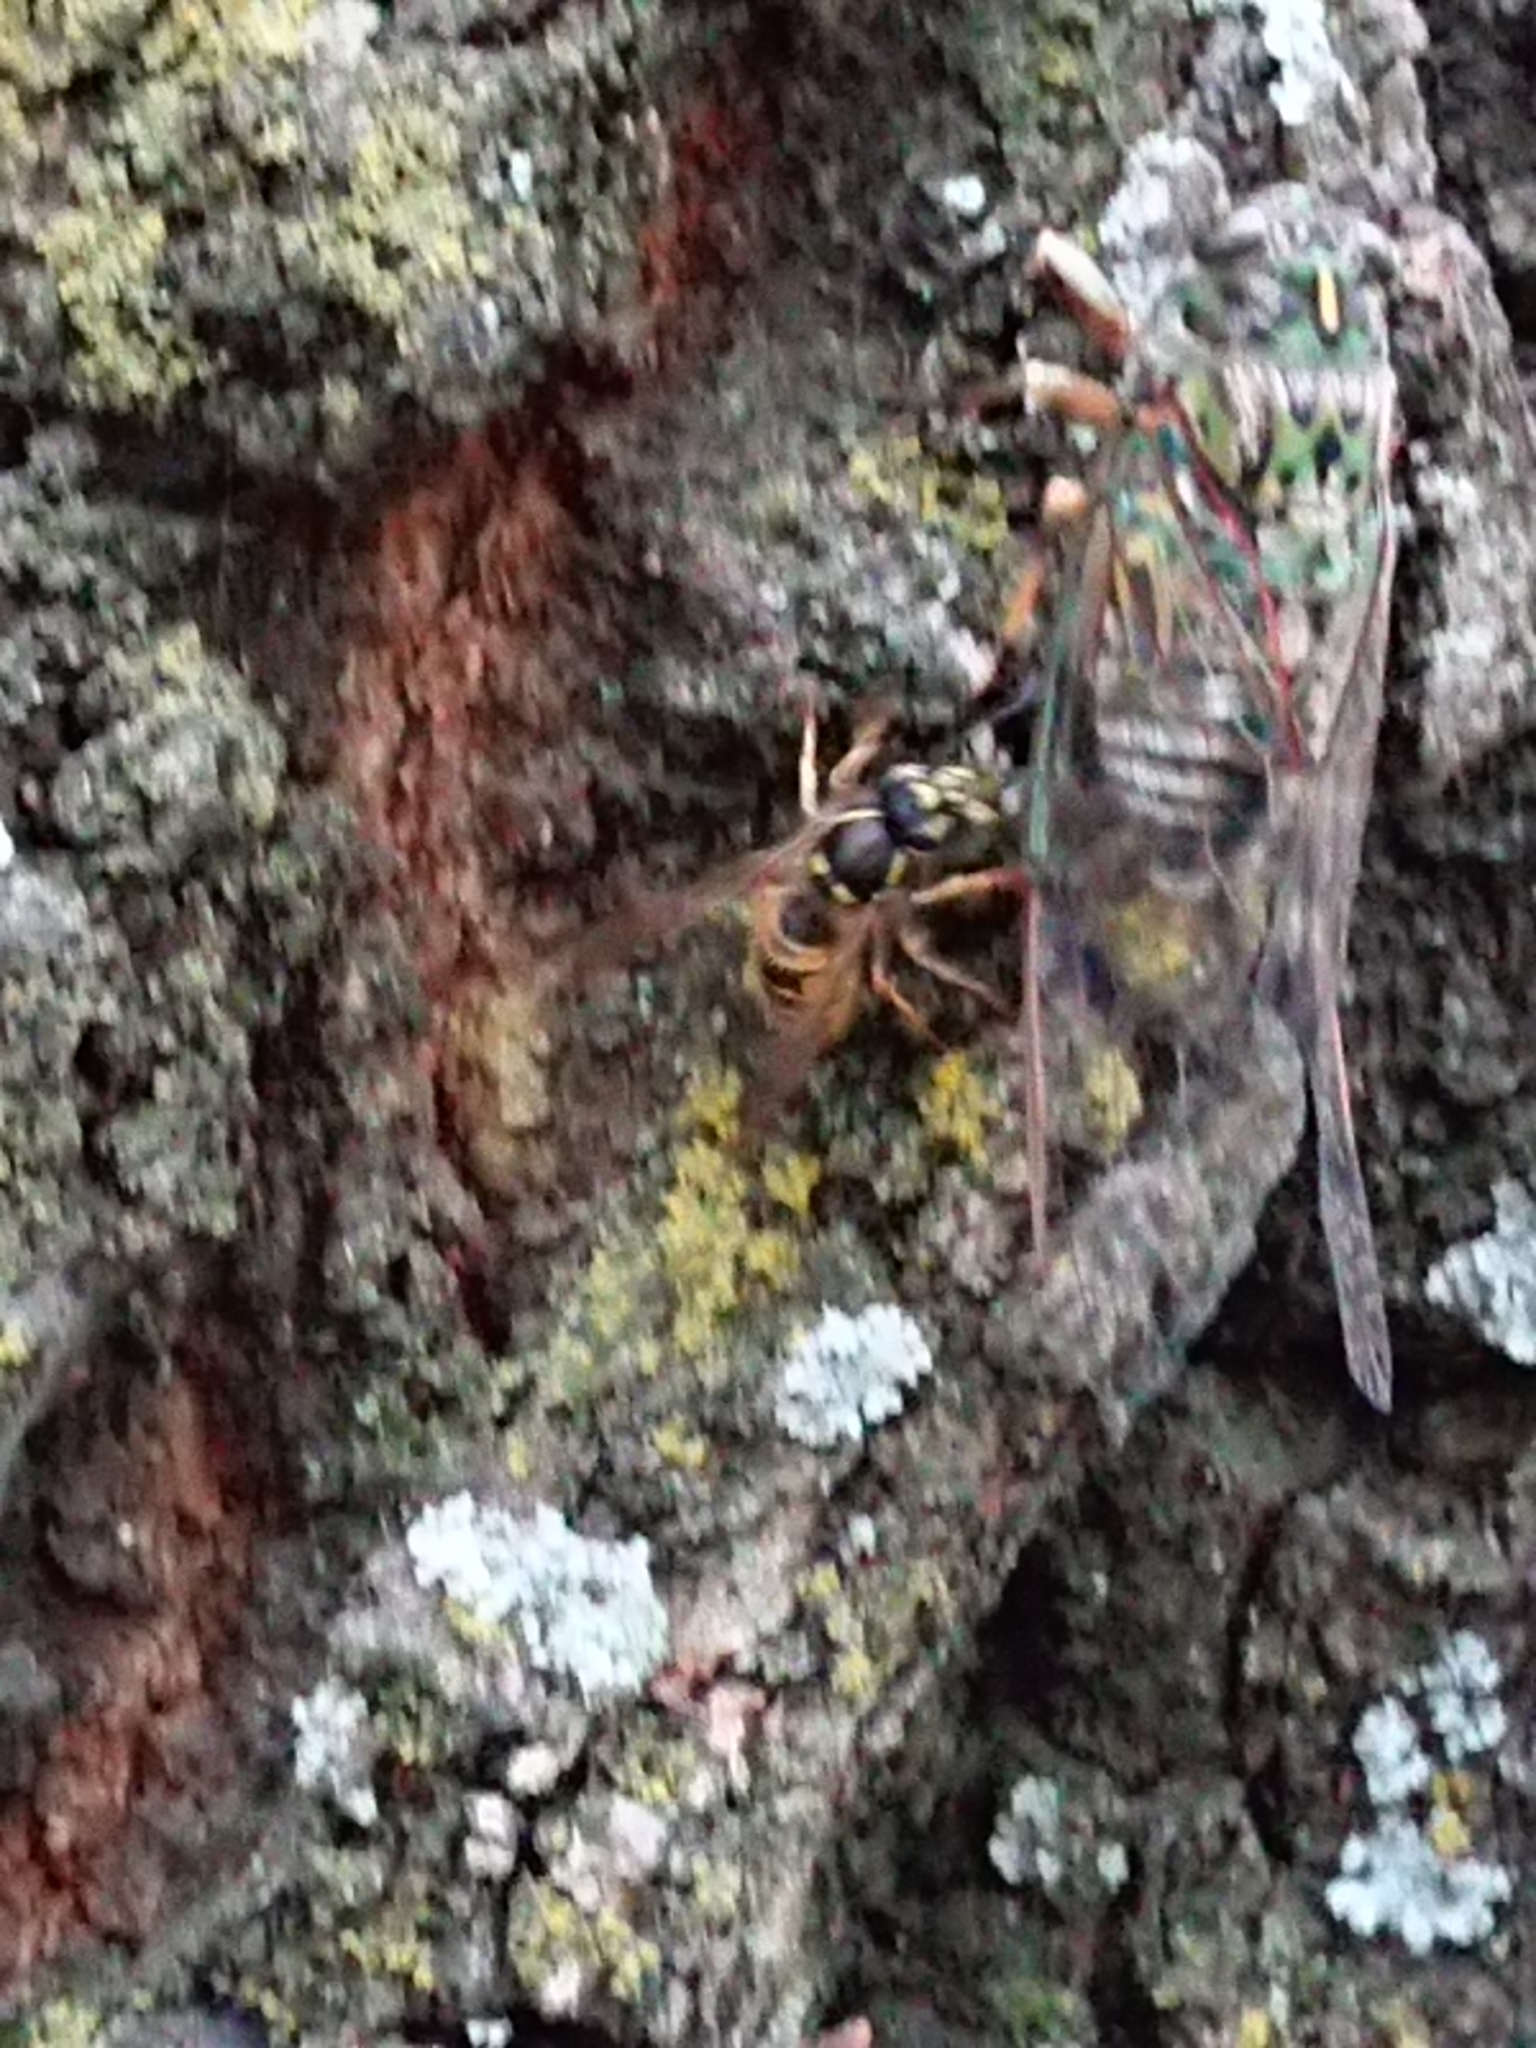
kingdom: Animalia
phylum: Arthropoda
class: Insecta
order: Hymenoptera
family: Vespidae
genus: Vespula
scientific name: Vespula vulgaris
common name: Common wasp
